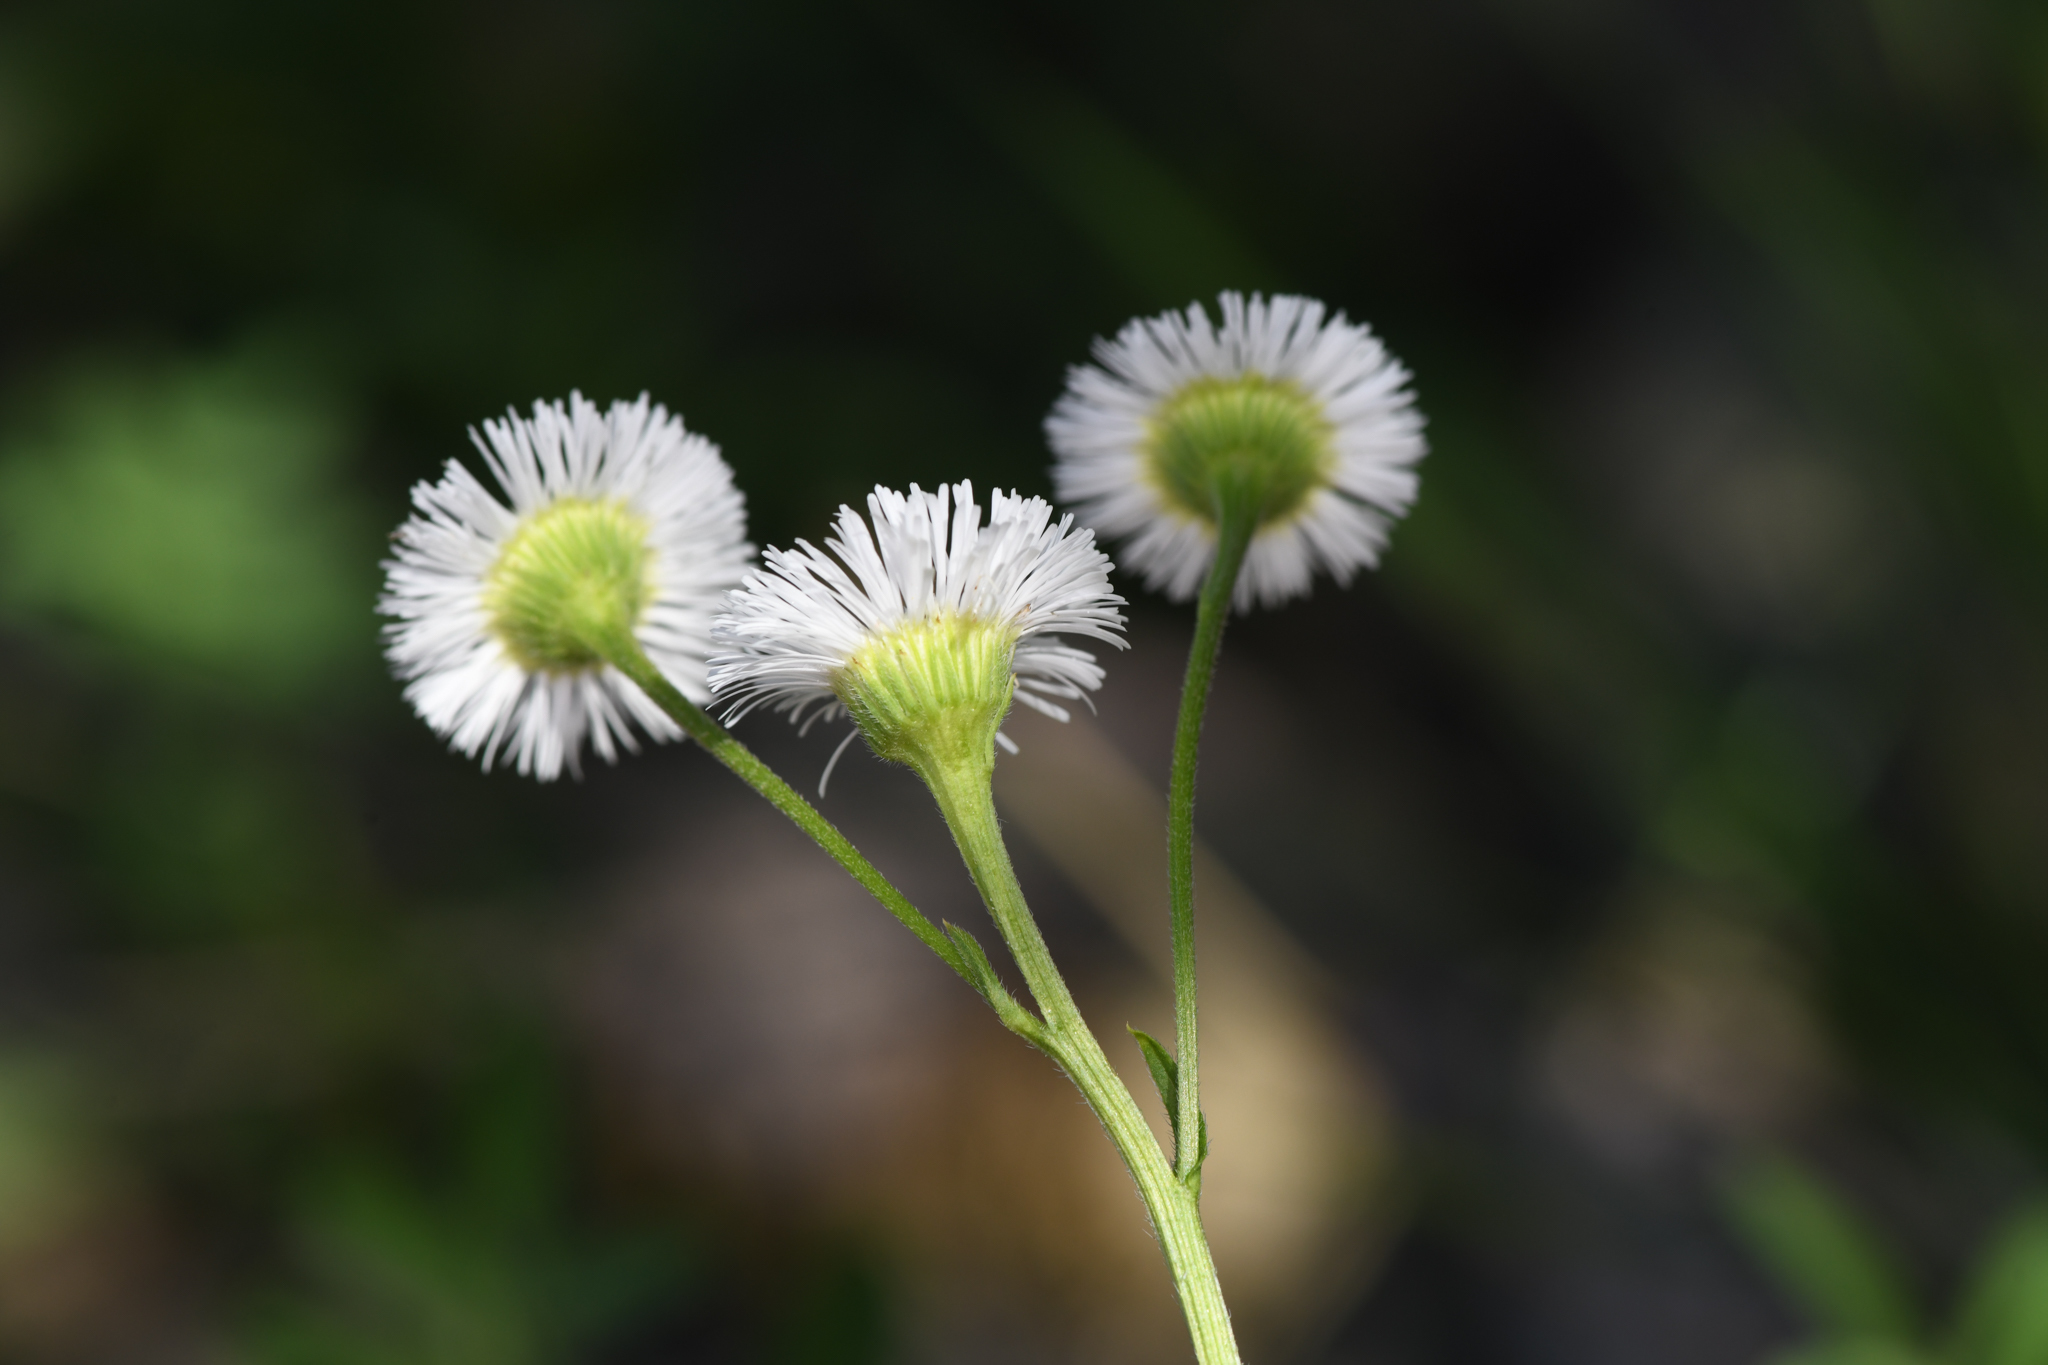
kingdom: Plantae
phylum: Tracheophyta
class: Magnoliopsida
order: Asterales
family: Asteraceae
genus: Erigeron
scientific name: Erigeron philadelphicus
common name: Robin's-plantain
